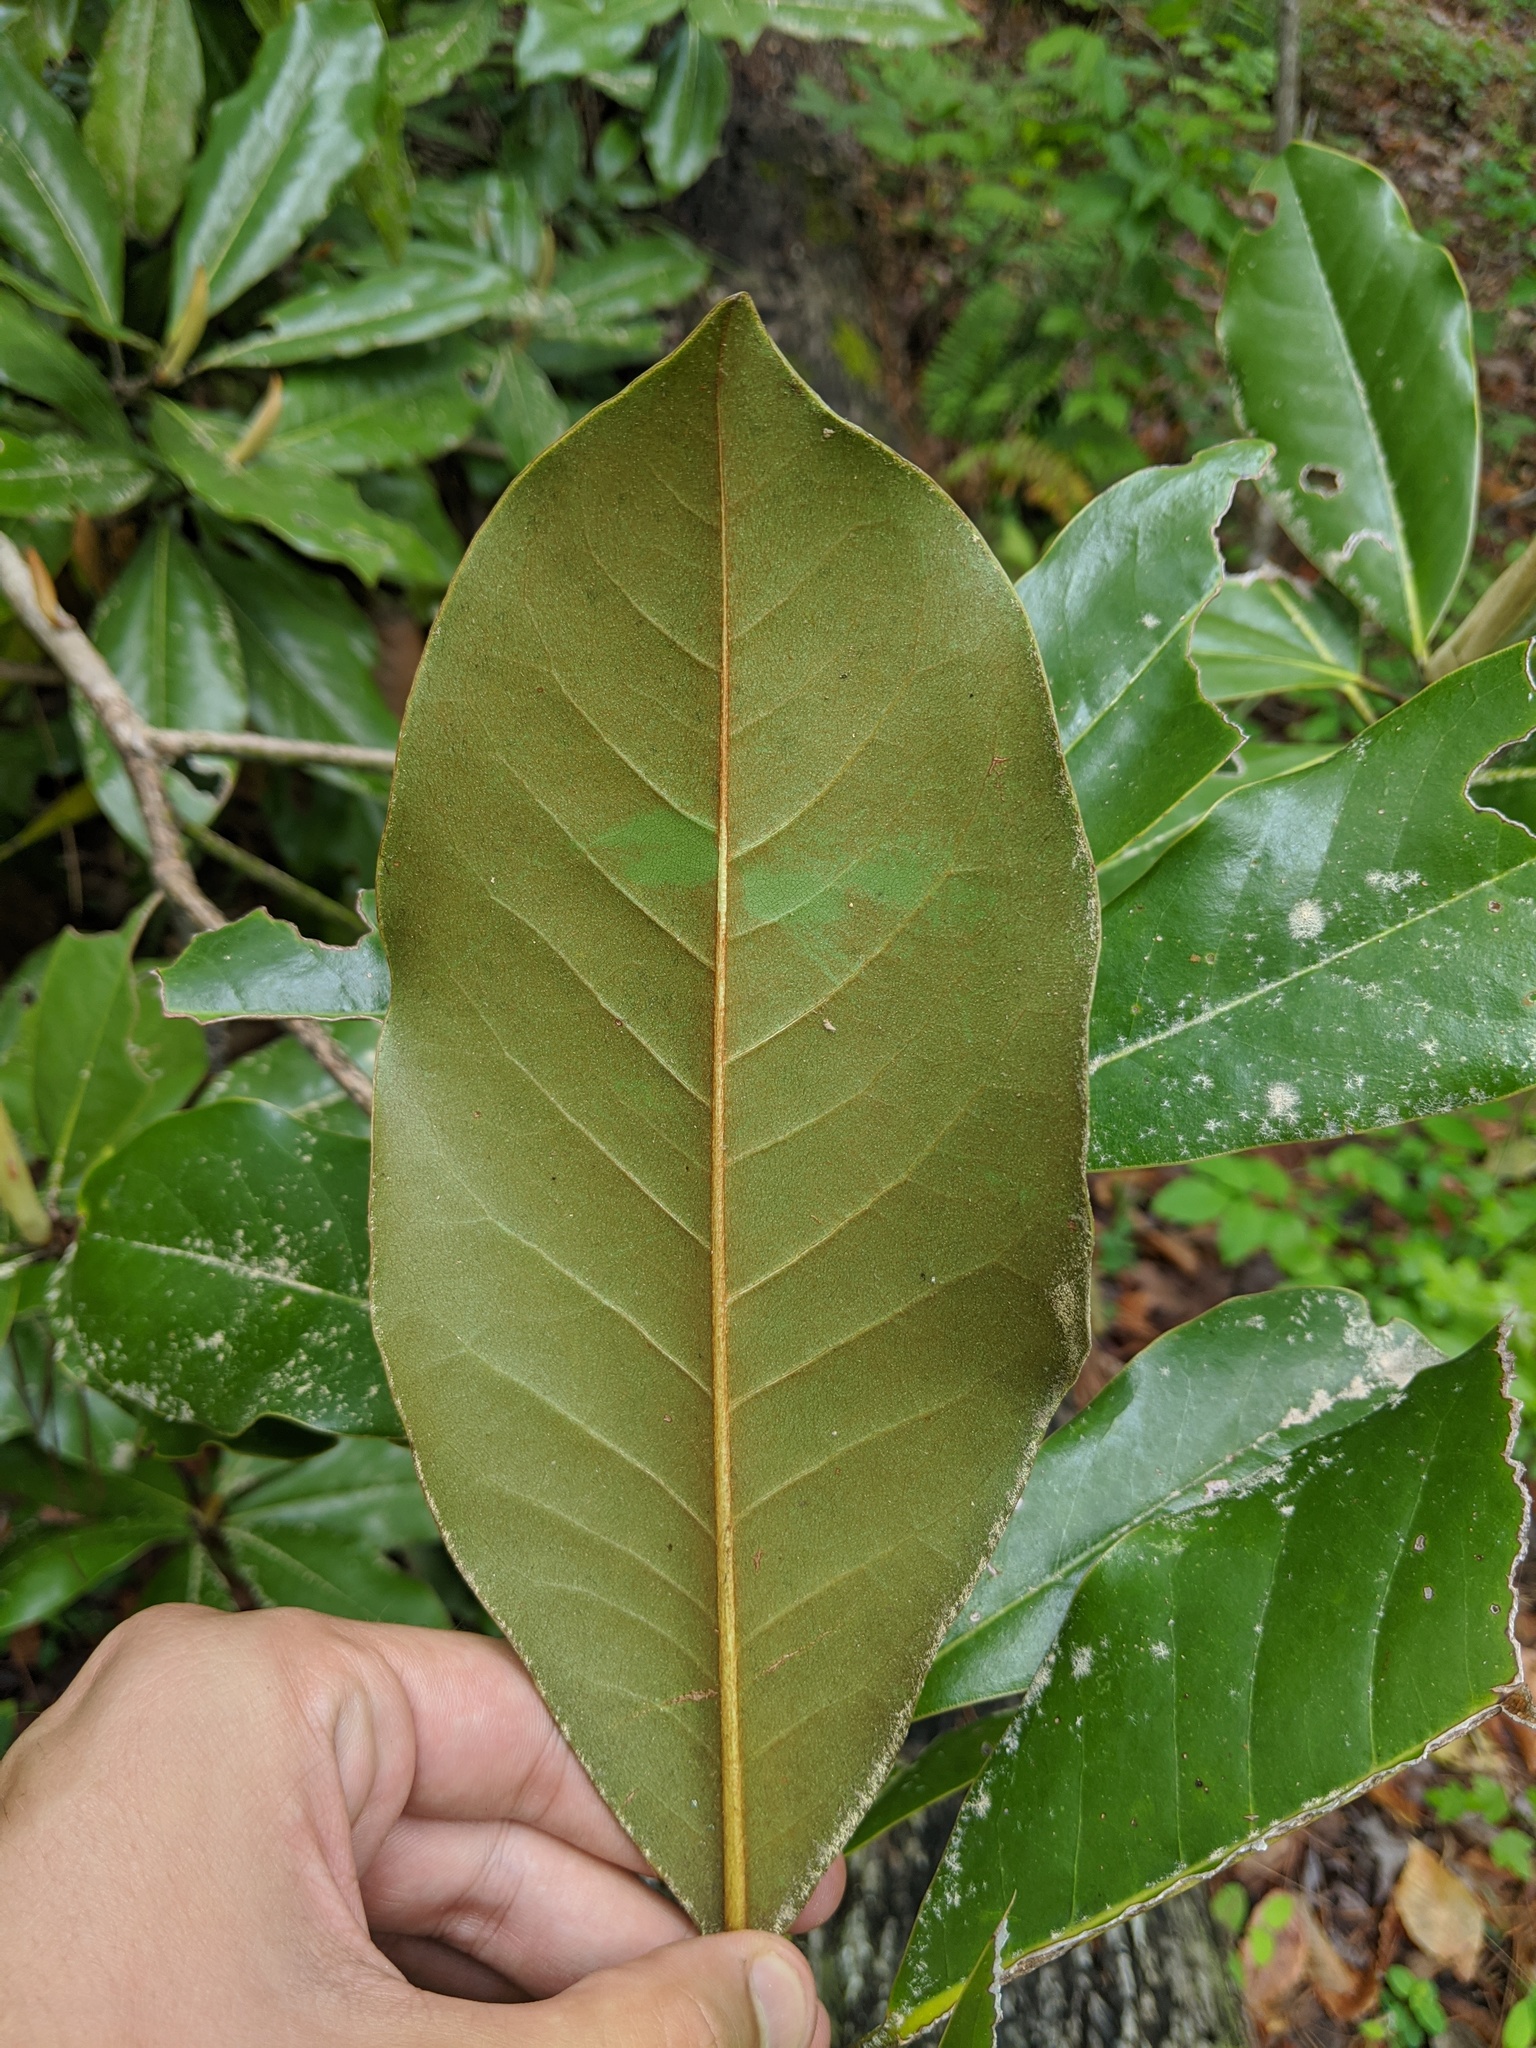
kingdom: Plantae
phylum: Tracheophyta
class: Magnoliopsida
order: Magnoliales
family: Magnoliaceae
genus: Magnolia
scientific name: Magnolia grandiflora
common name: Southern magnolia
